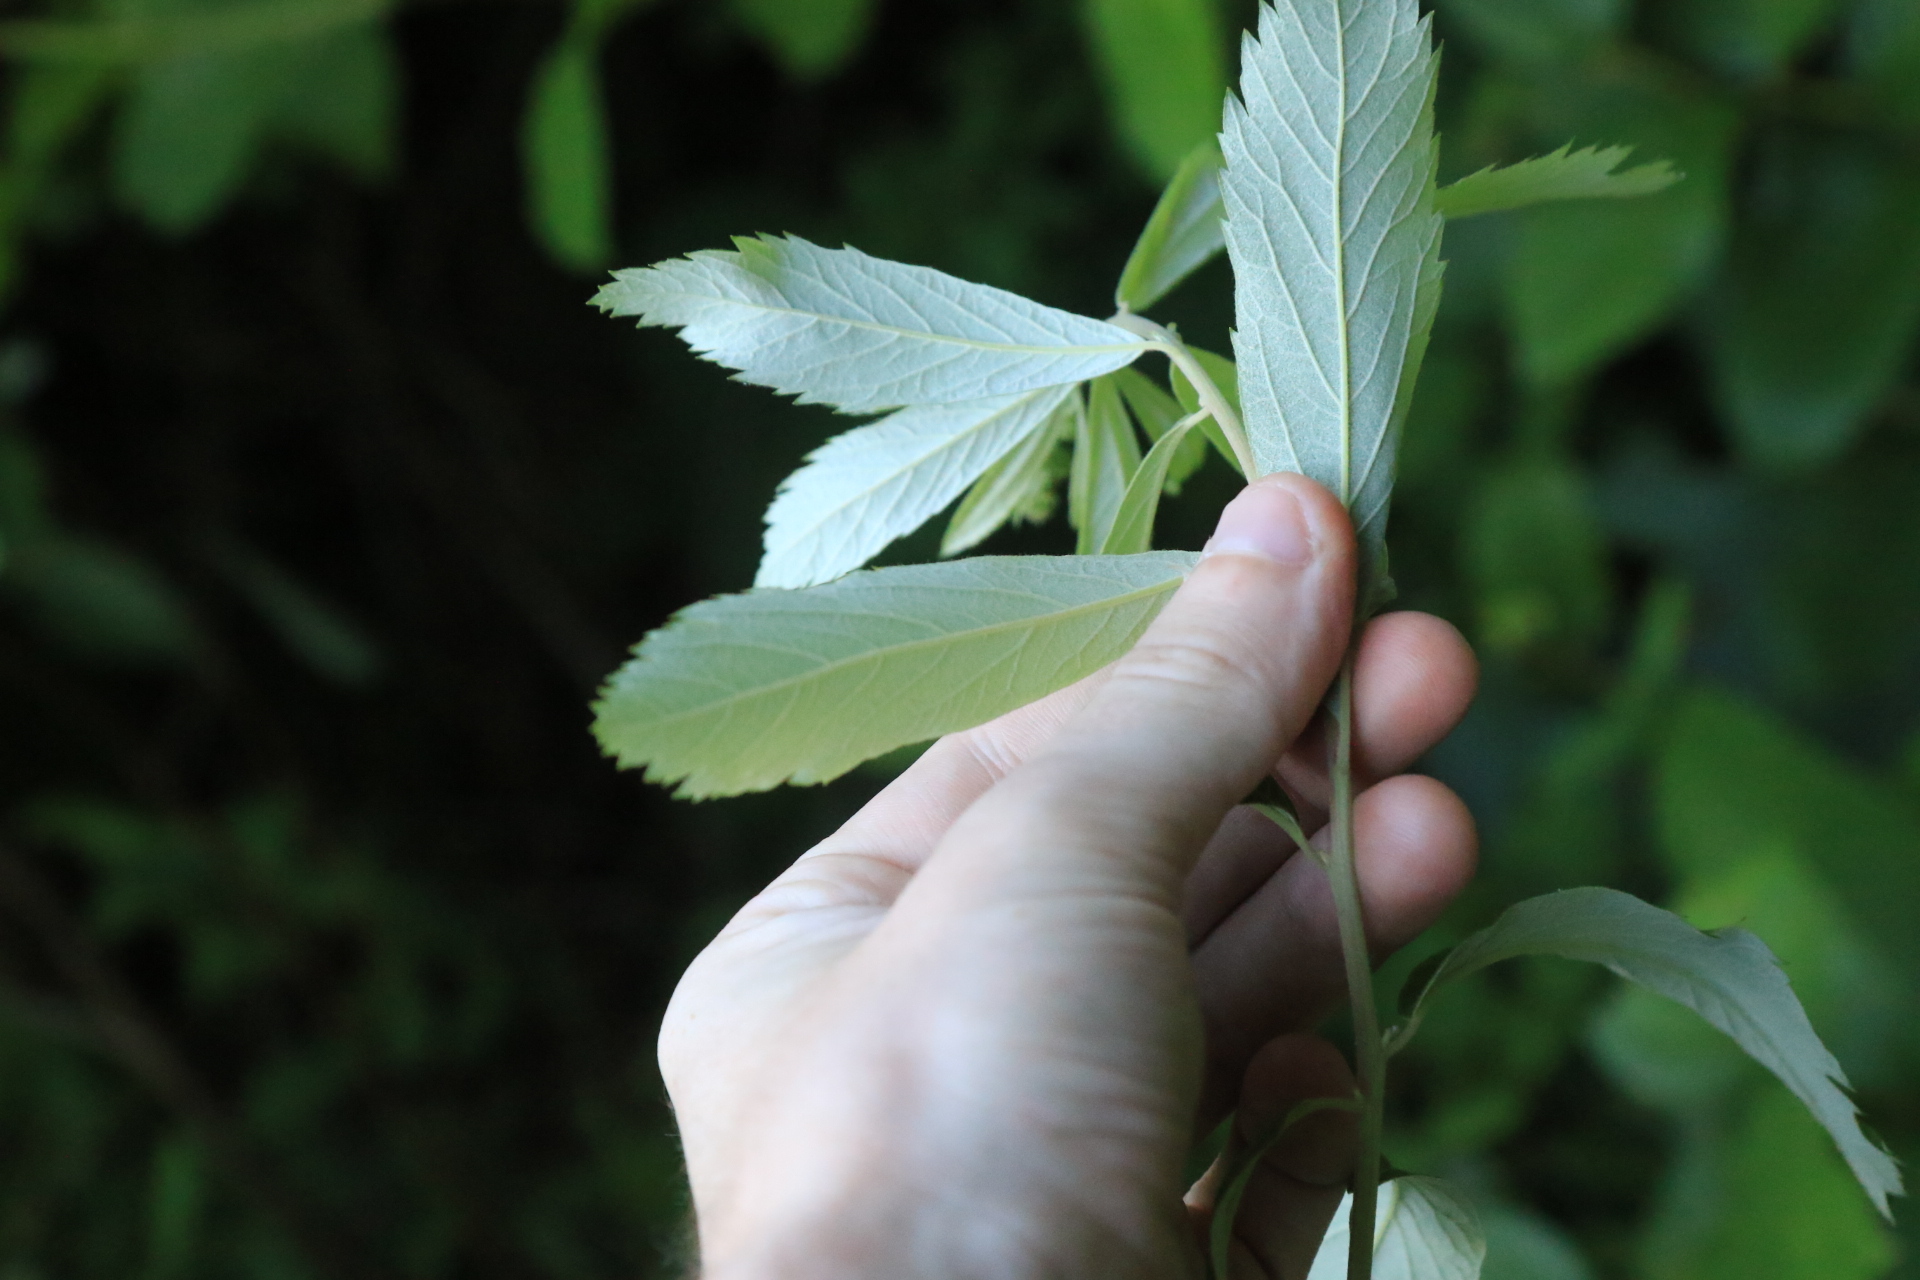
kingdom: Plantae
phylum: Tracheophyta
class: Magnoliopsida
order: Rosales
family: Rosaceae
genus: Spiraea
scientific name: Spiraea douglasii
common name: Steeplebush
